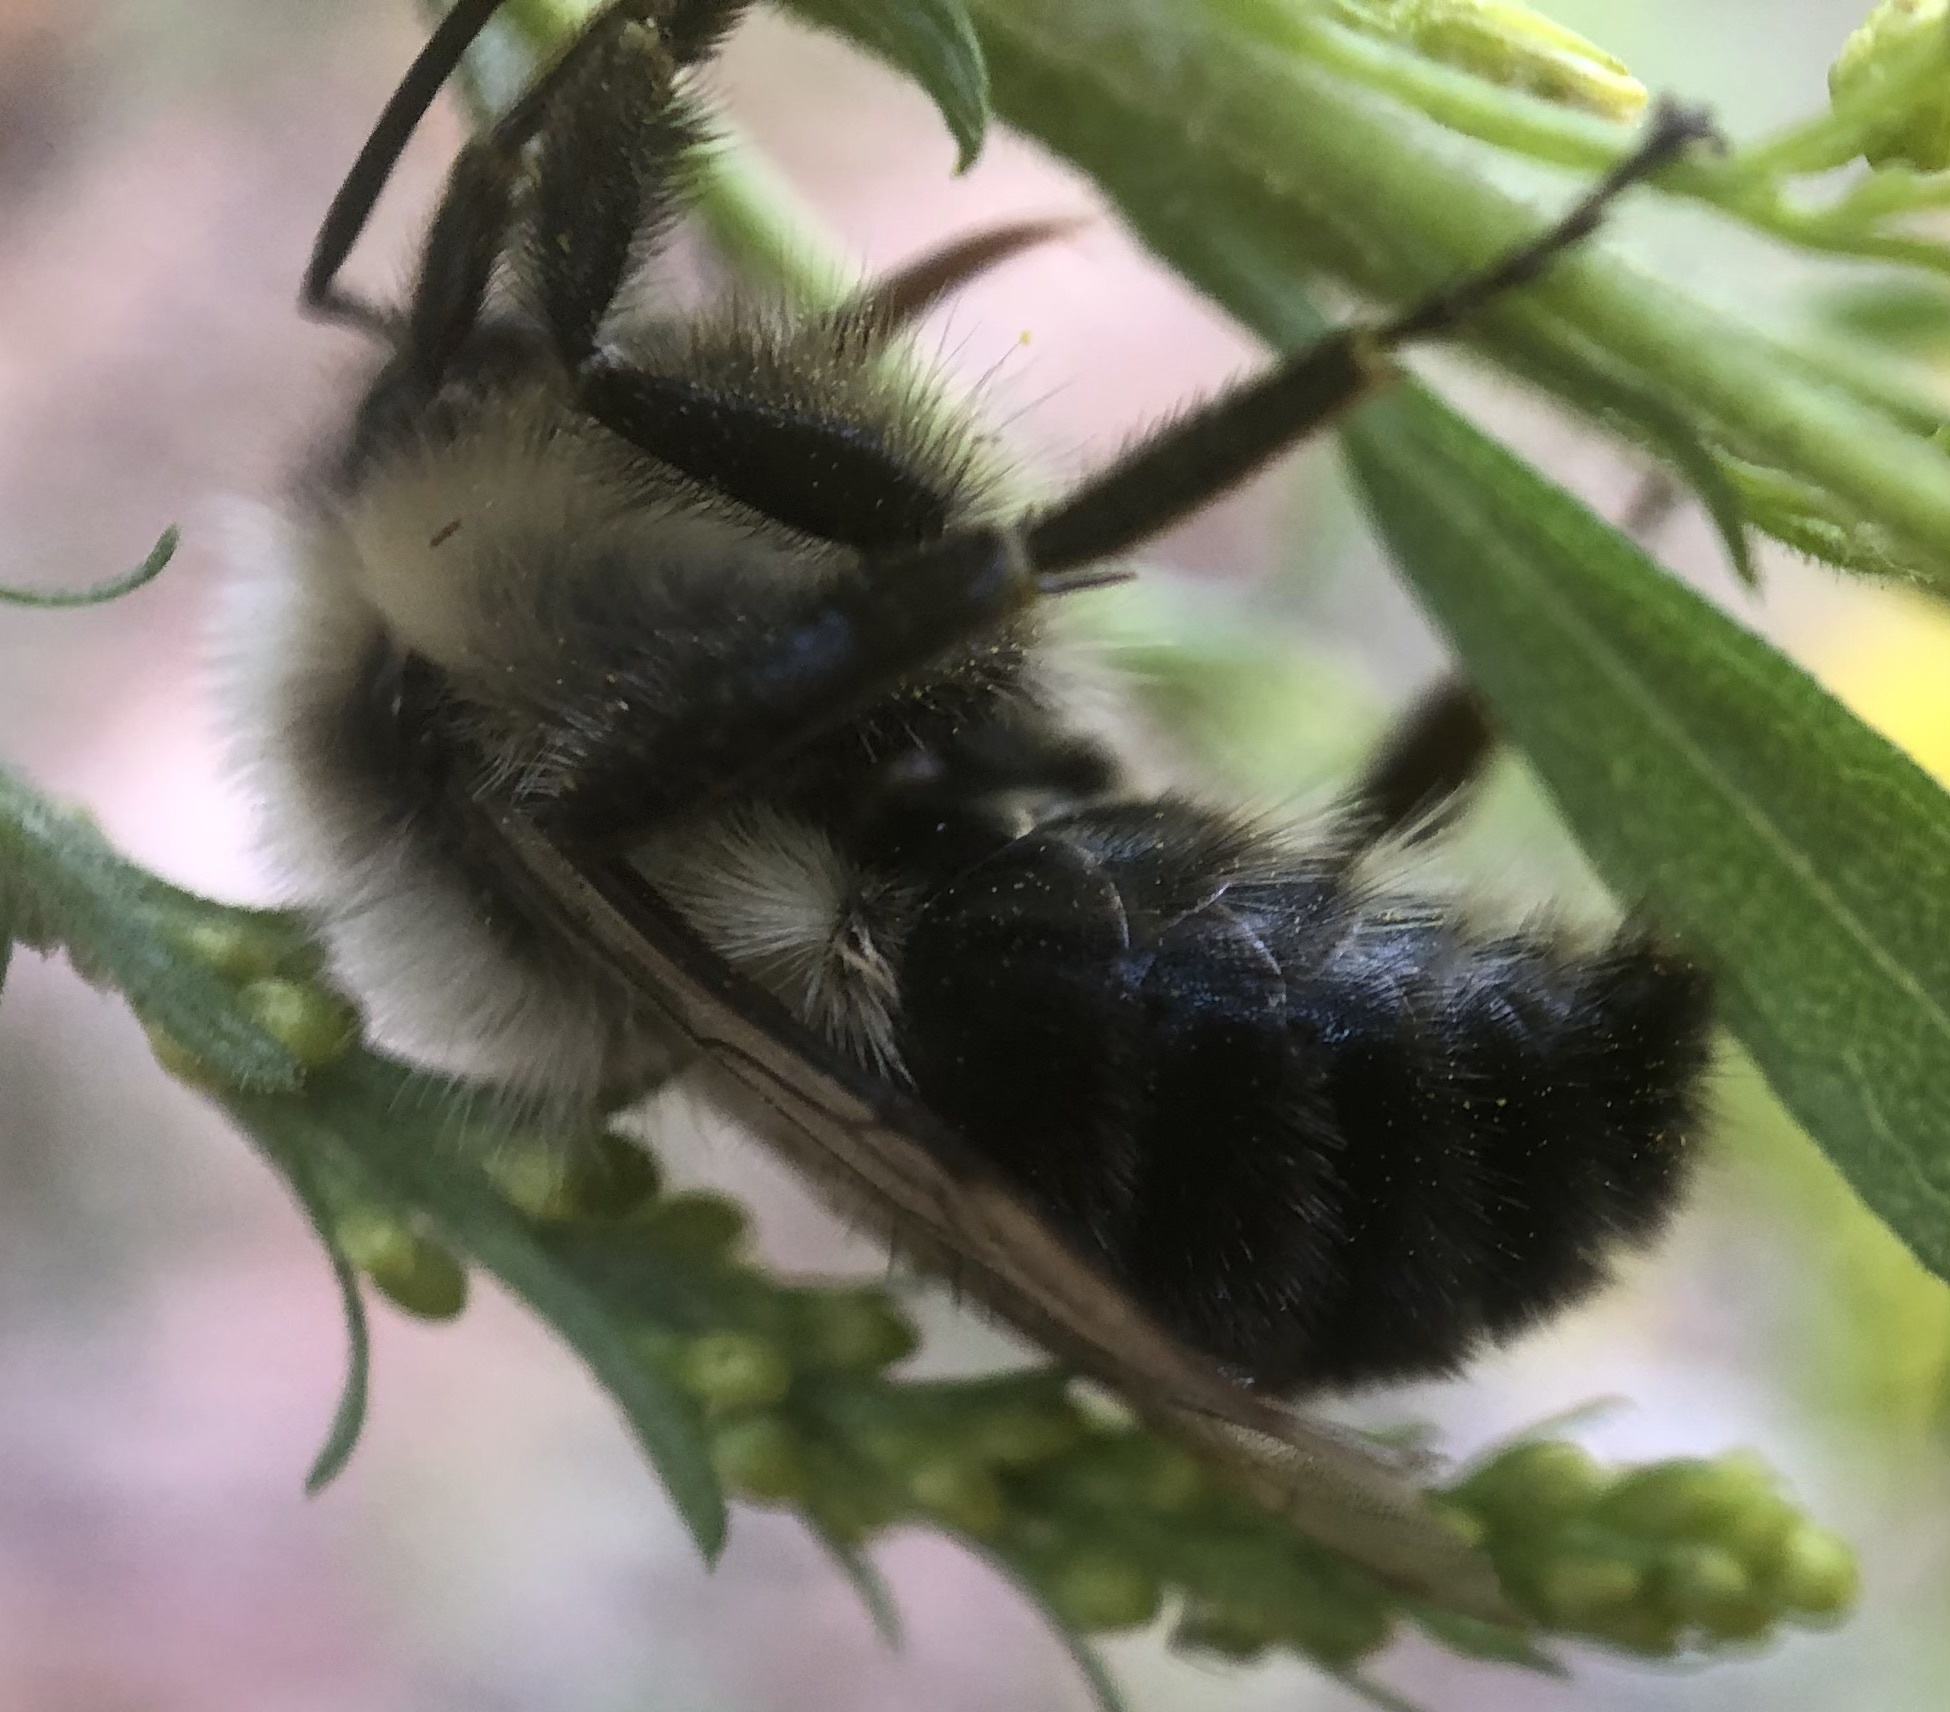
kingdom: Animalia
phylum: Arthropoda
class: Insecta
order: Hymenoptera
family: Apidae
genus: Bombus
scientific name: Bombus impatiens
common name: Common eastern bumble bee
